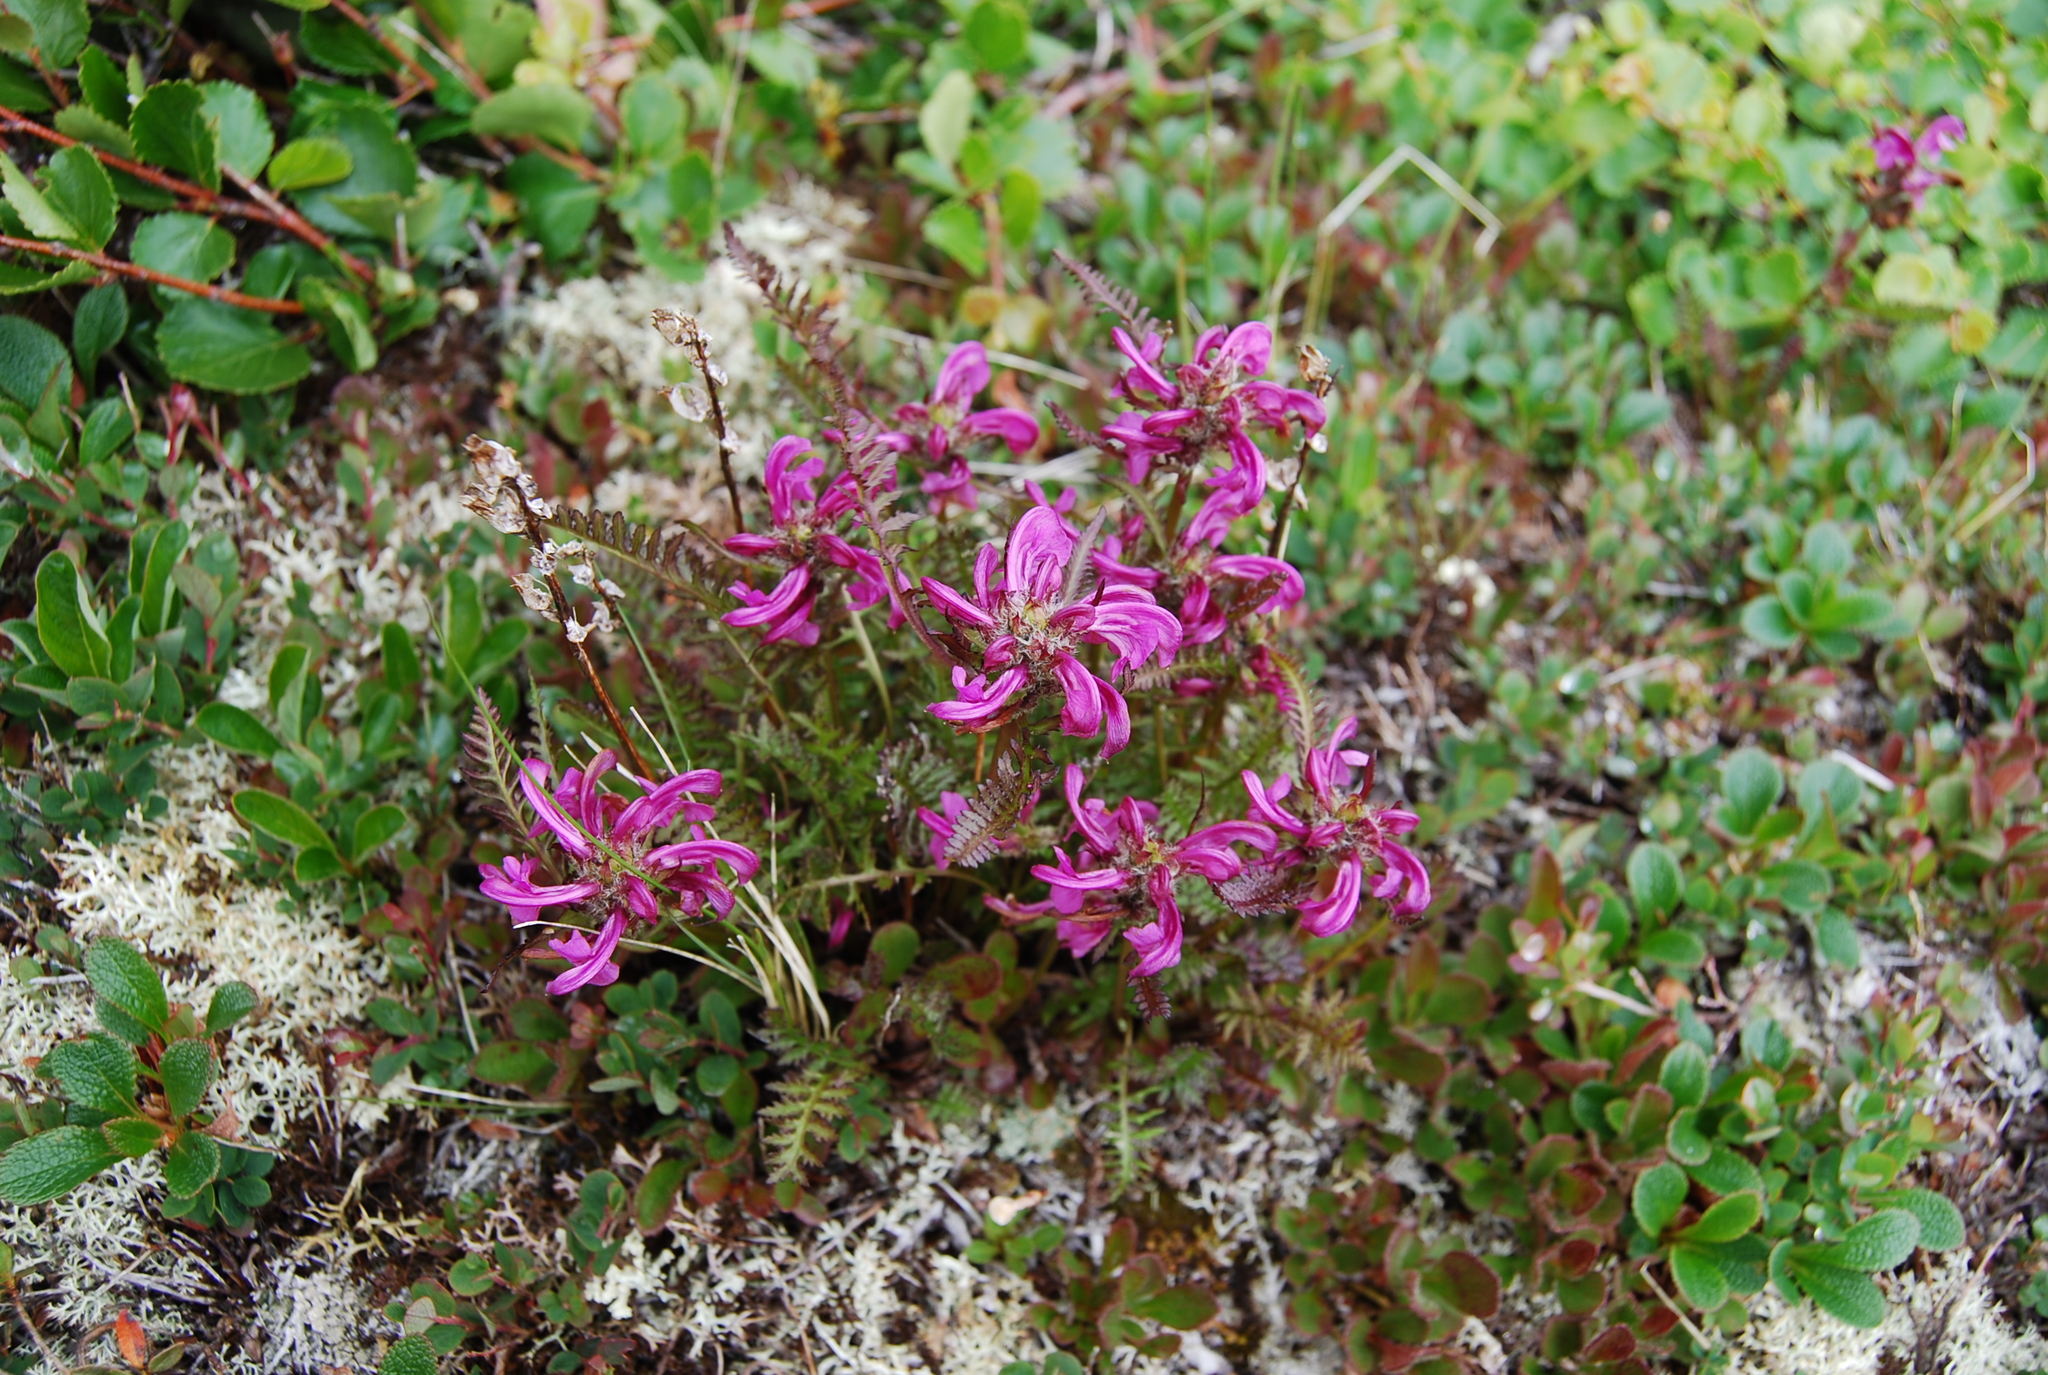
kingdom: Plantae
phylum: Tracheophyta
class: Magnoliopsida
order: Lamiales
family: Orobanchaceae
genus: Pedicularis
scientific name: Pedicularis sudetica
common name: Sudeten lousewort
